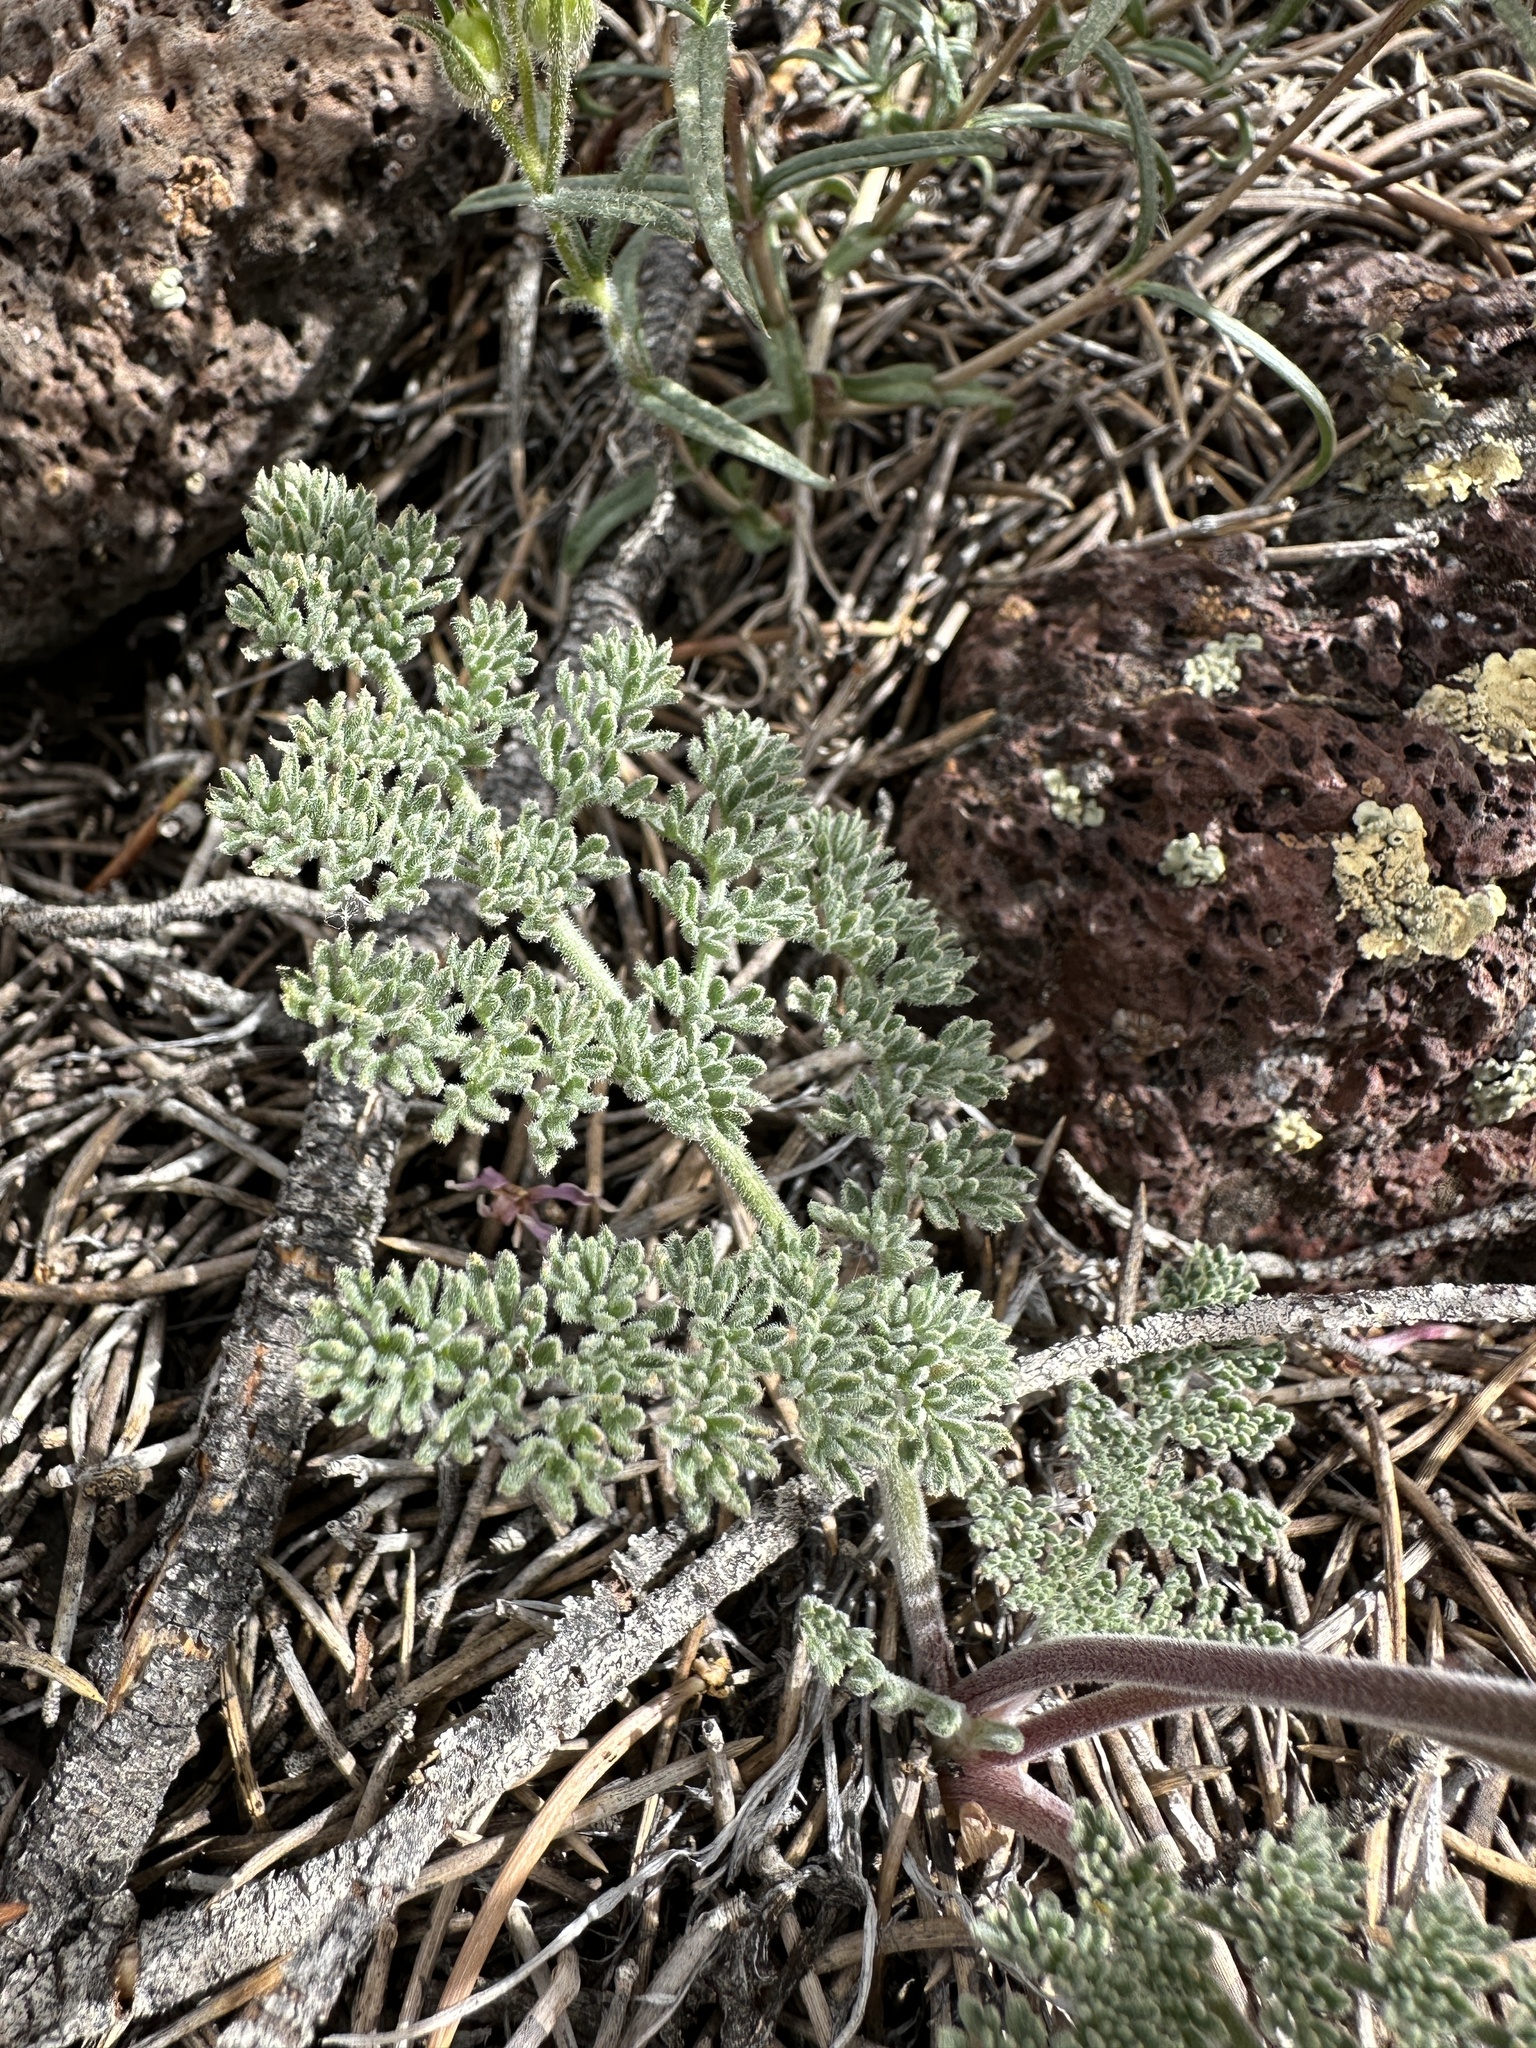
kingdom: Plantae
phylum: Tracheophyta
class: Magnoliopsida
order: Apiales
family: Apiaceae
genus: Lomatium
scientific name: Lomatium foeniculaceum
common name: Desert-parsley
